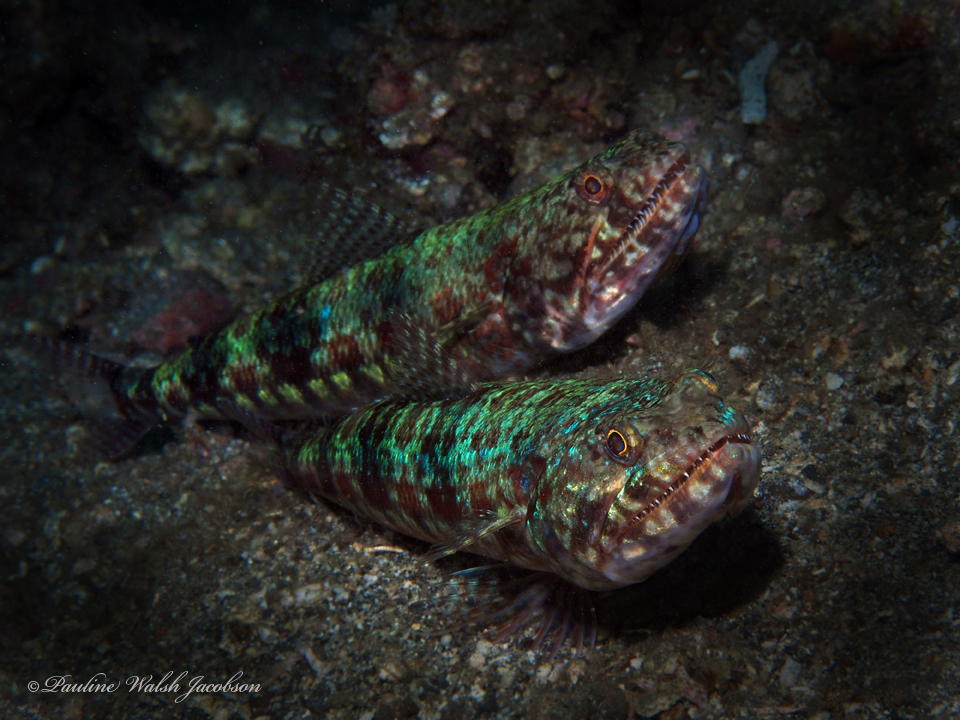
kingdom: Animalia
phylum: Chordata
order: Aulopiformes
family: Synodontidae
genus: Synodus
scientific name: Synodus variegatus
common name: Variegated lizardfish
